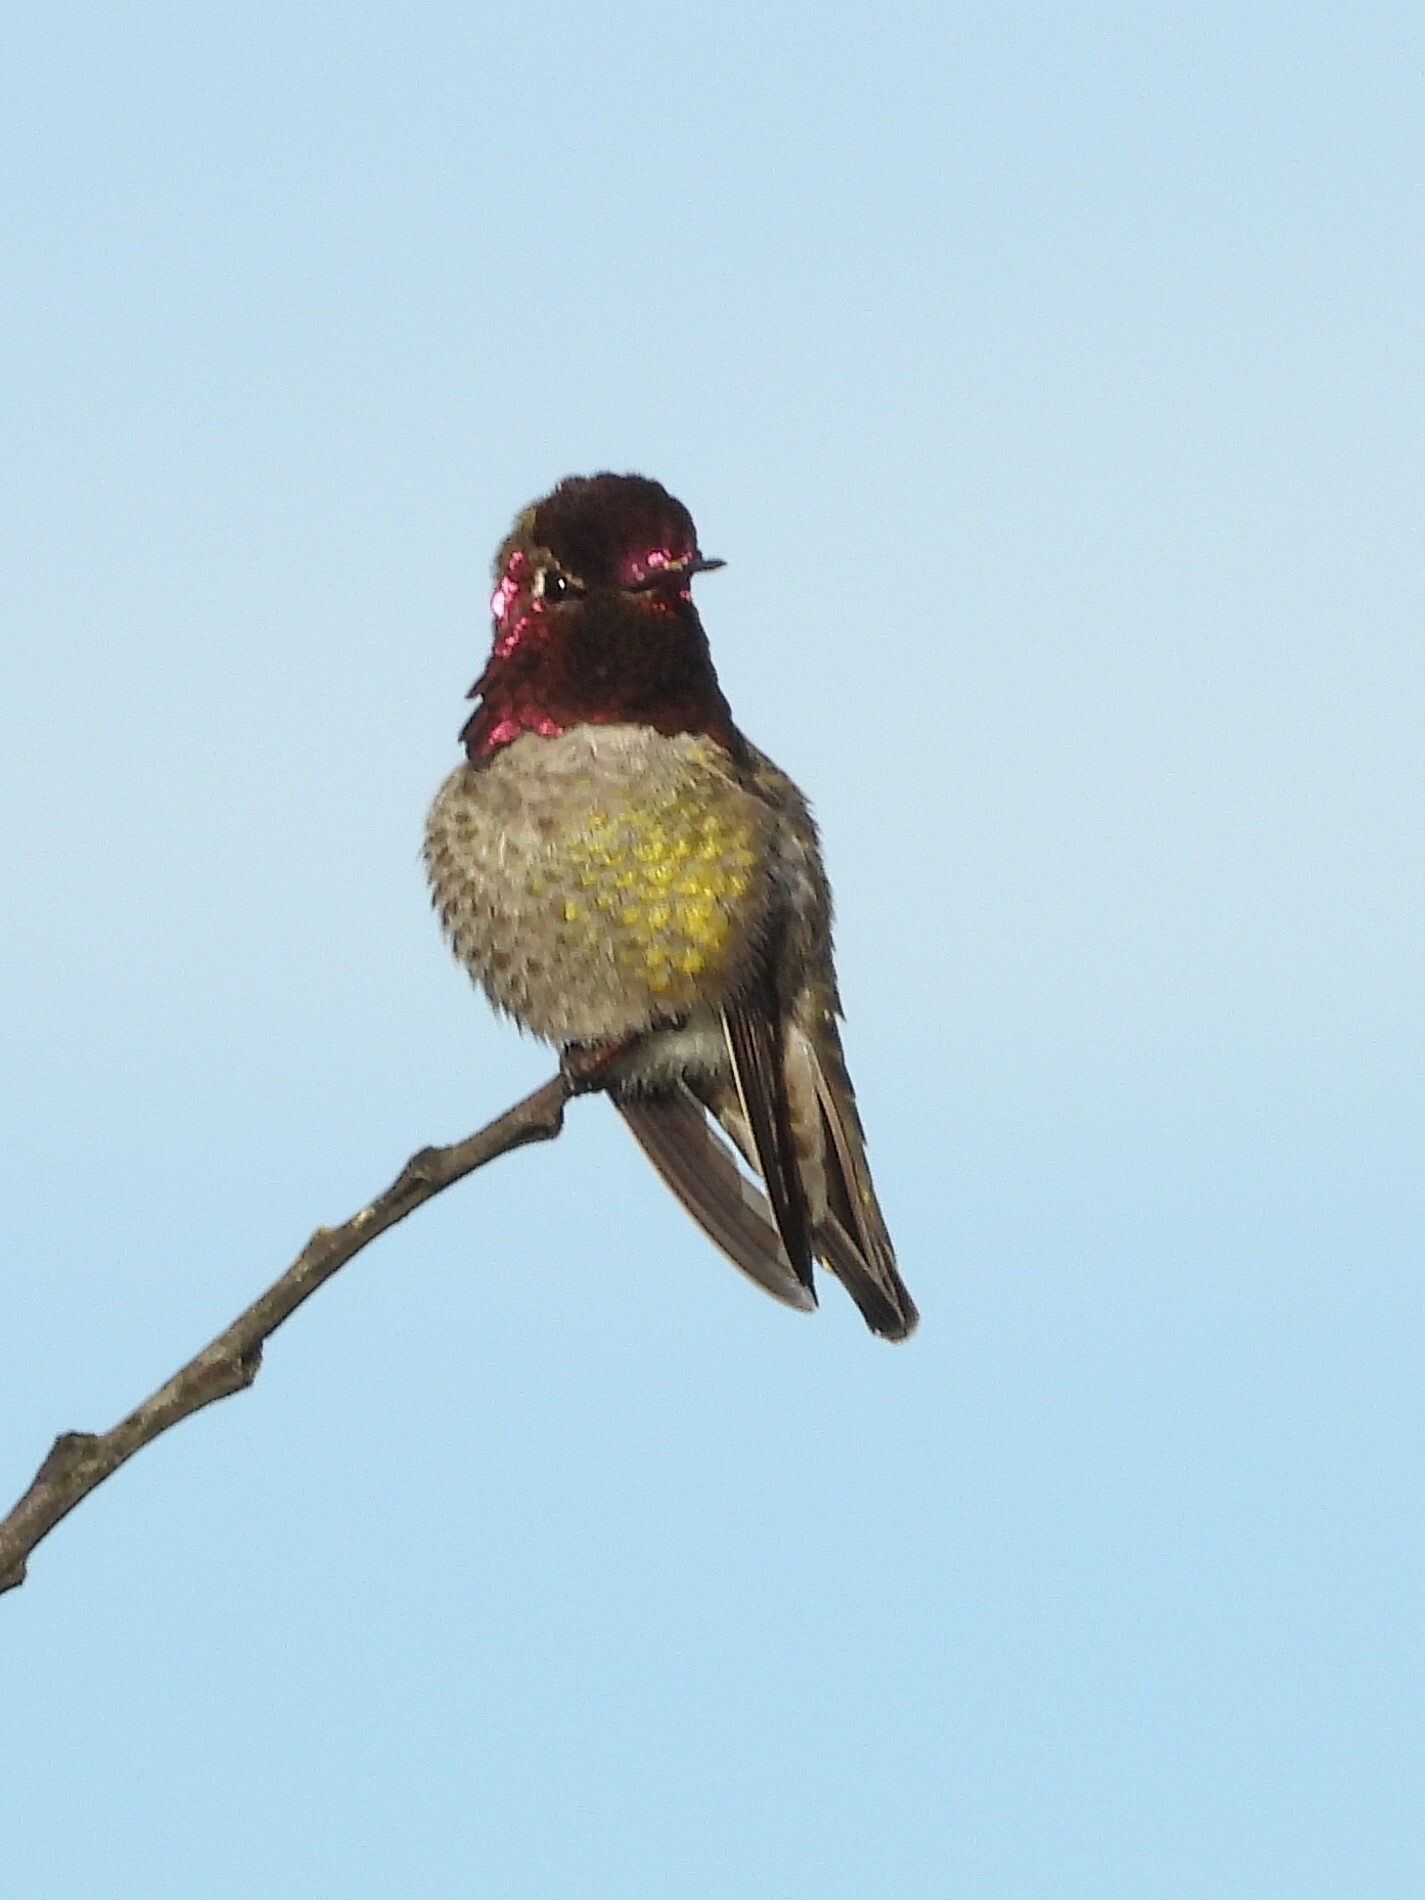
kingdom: Animalia
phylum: Chordata
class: Aves
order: Apodiformes
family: Trochilidae
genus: Calypte
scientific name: Calypte anna
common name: Anna's hummingbird
